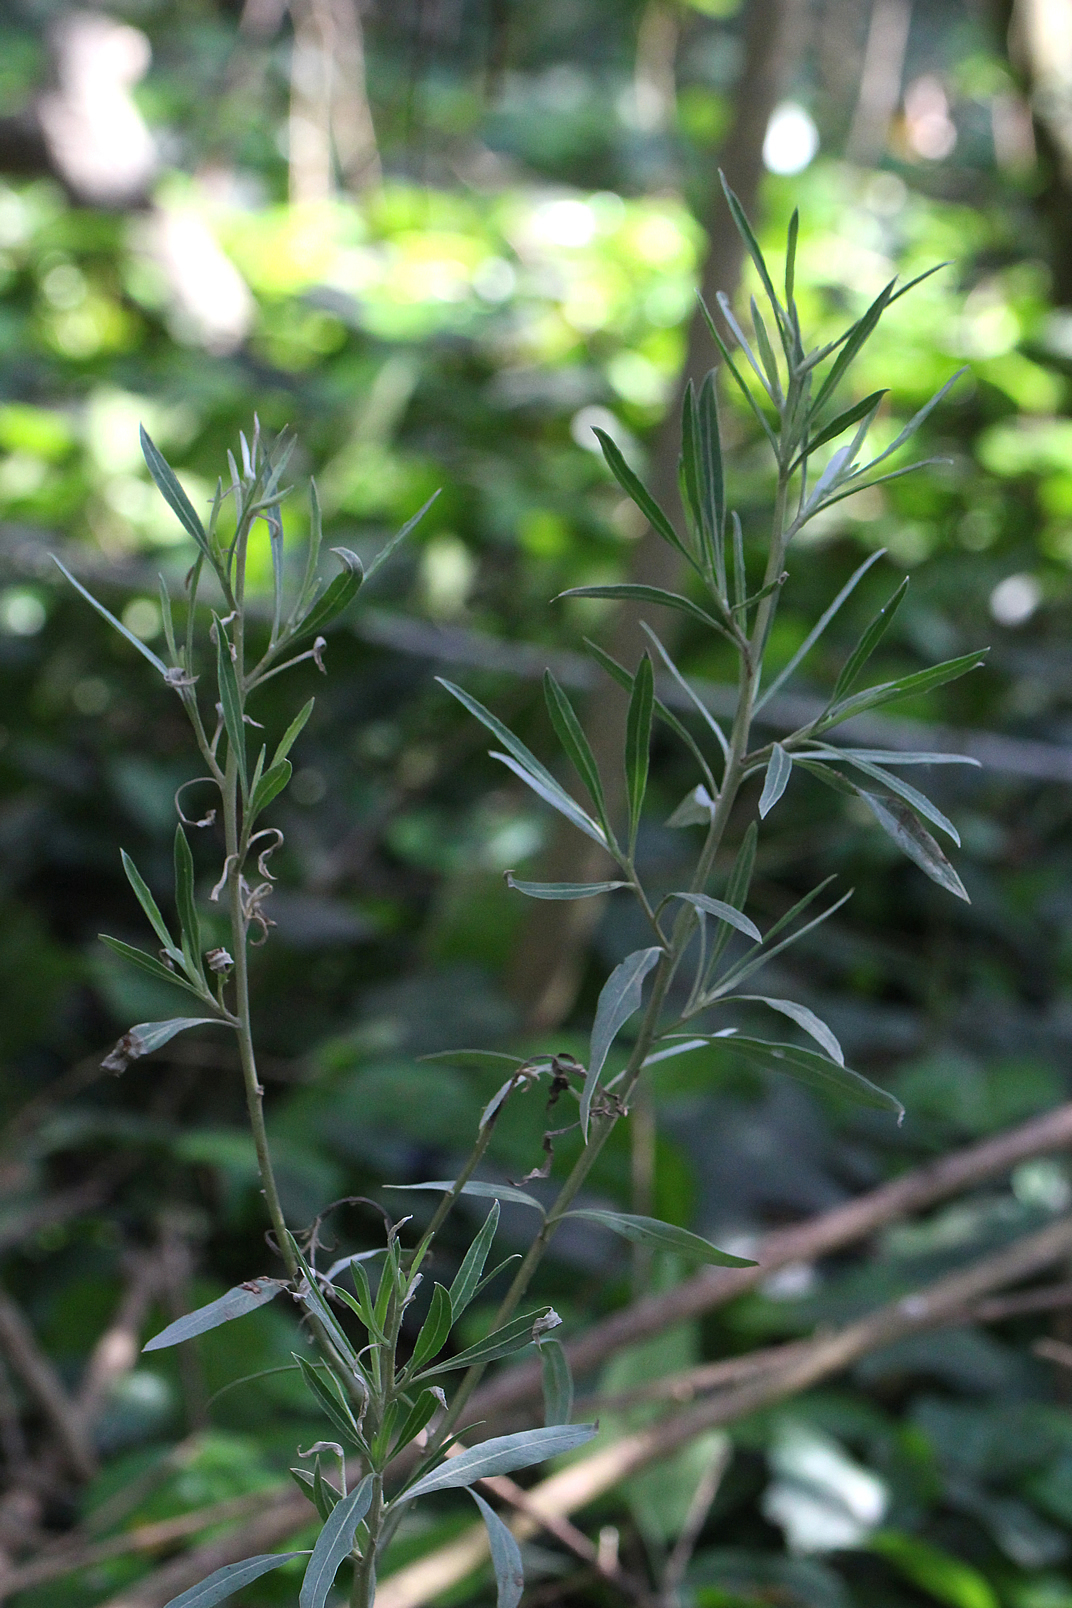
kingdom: Plantae
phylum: Tracheophyta
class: Magnoliopsida
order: Asterales
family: Asteraceae
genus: Tessaria
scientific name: Tessaria integrifolia
